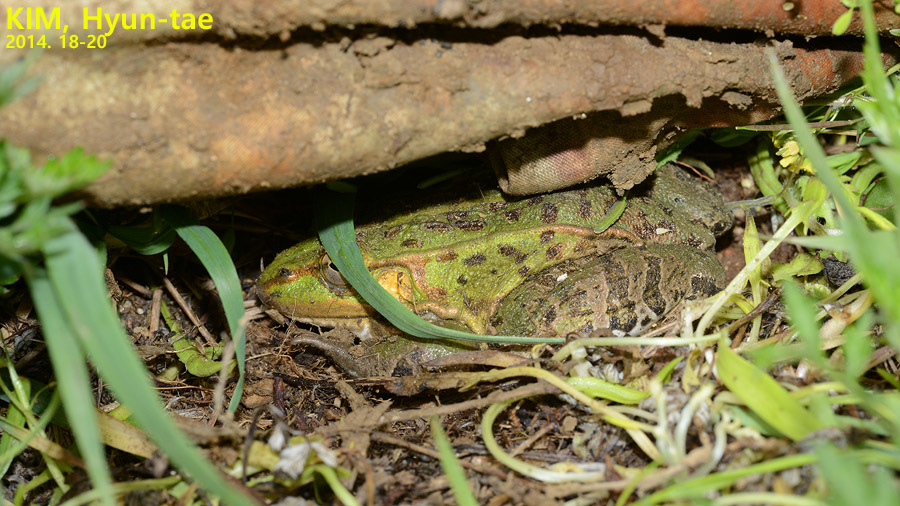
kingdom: Animalia
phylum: Chordata
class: Amphibia
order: Anura
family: Ranidae
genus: Pelophylax
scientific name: Pelophylax nigromaculatus
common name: Black-spotted pond frog
